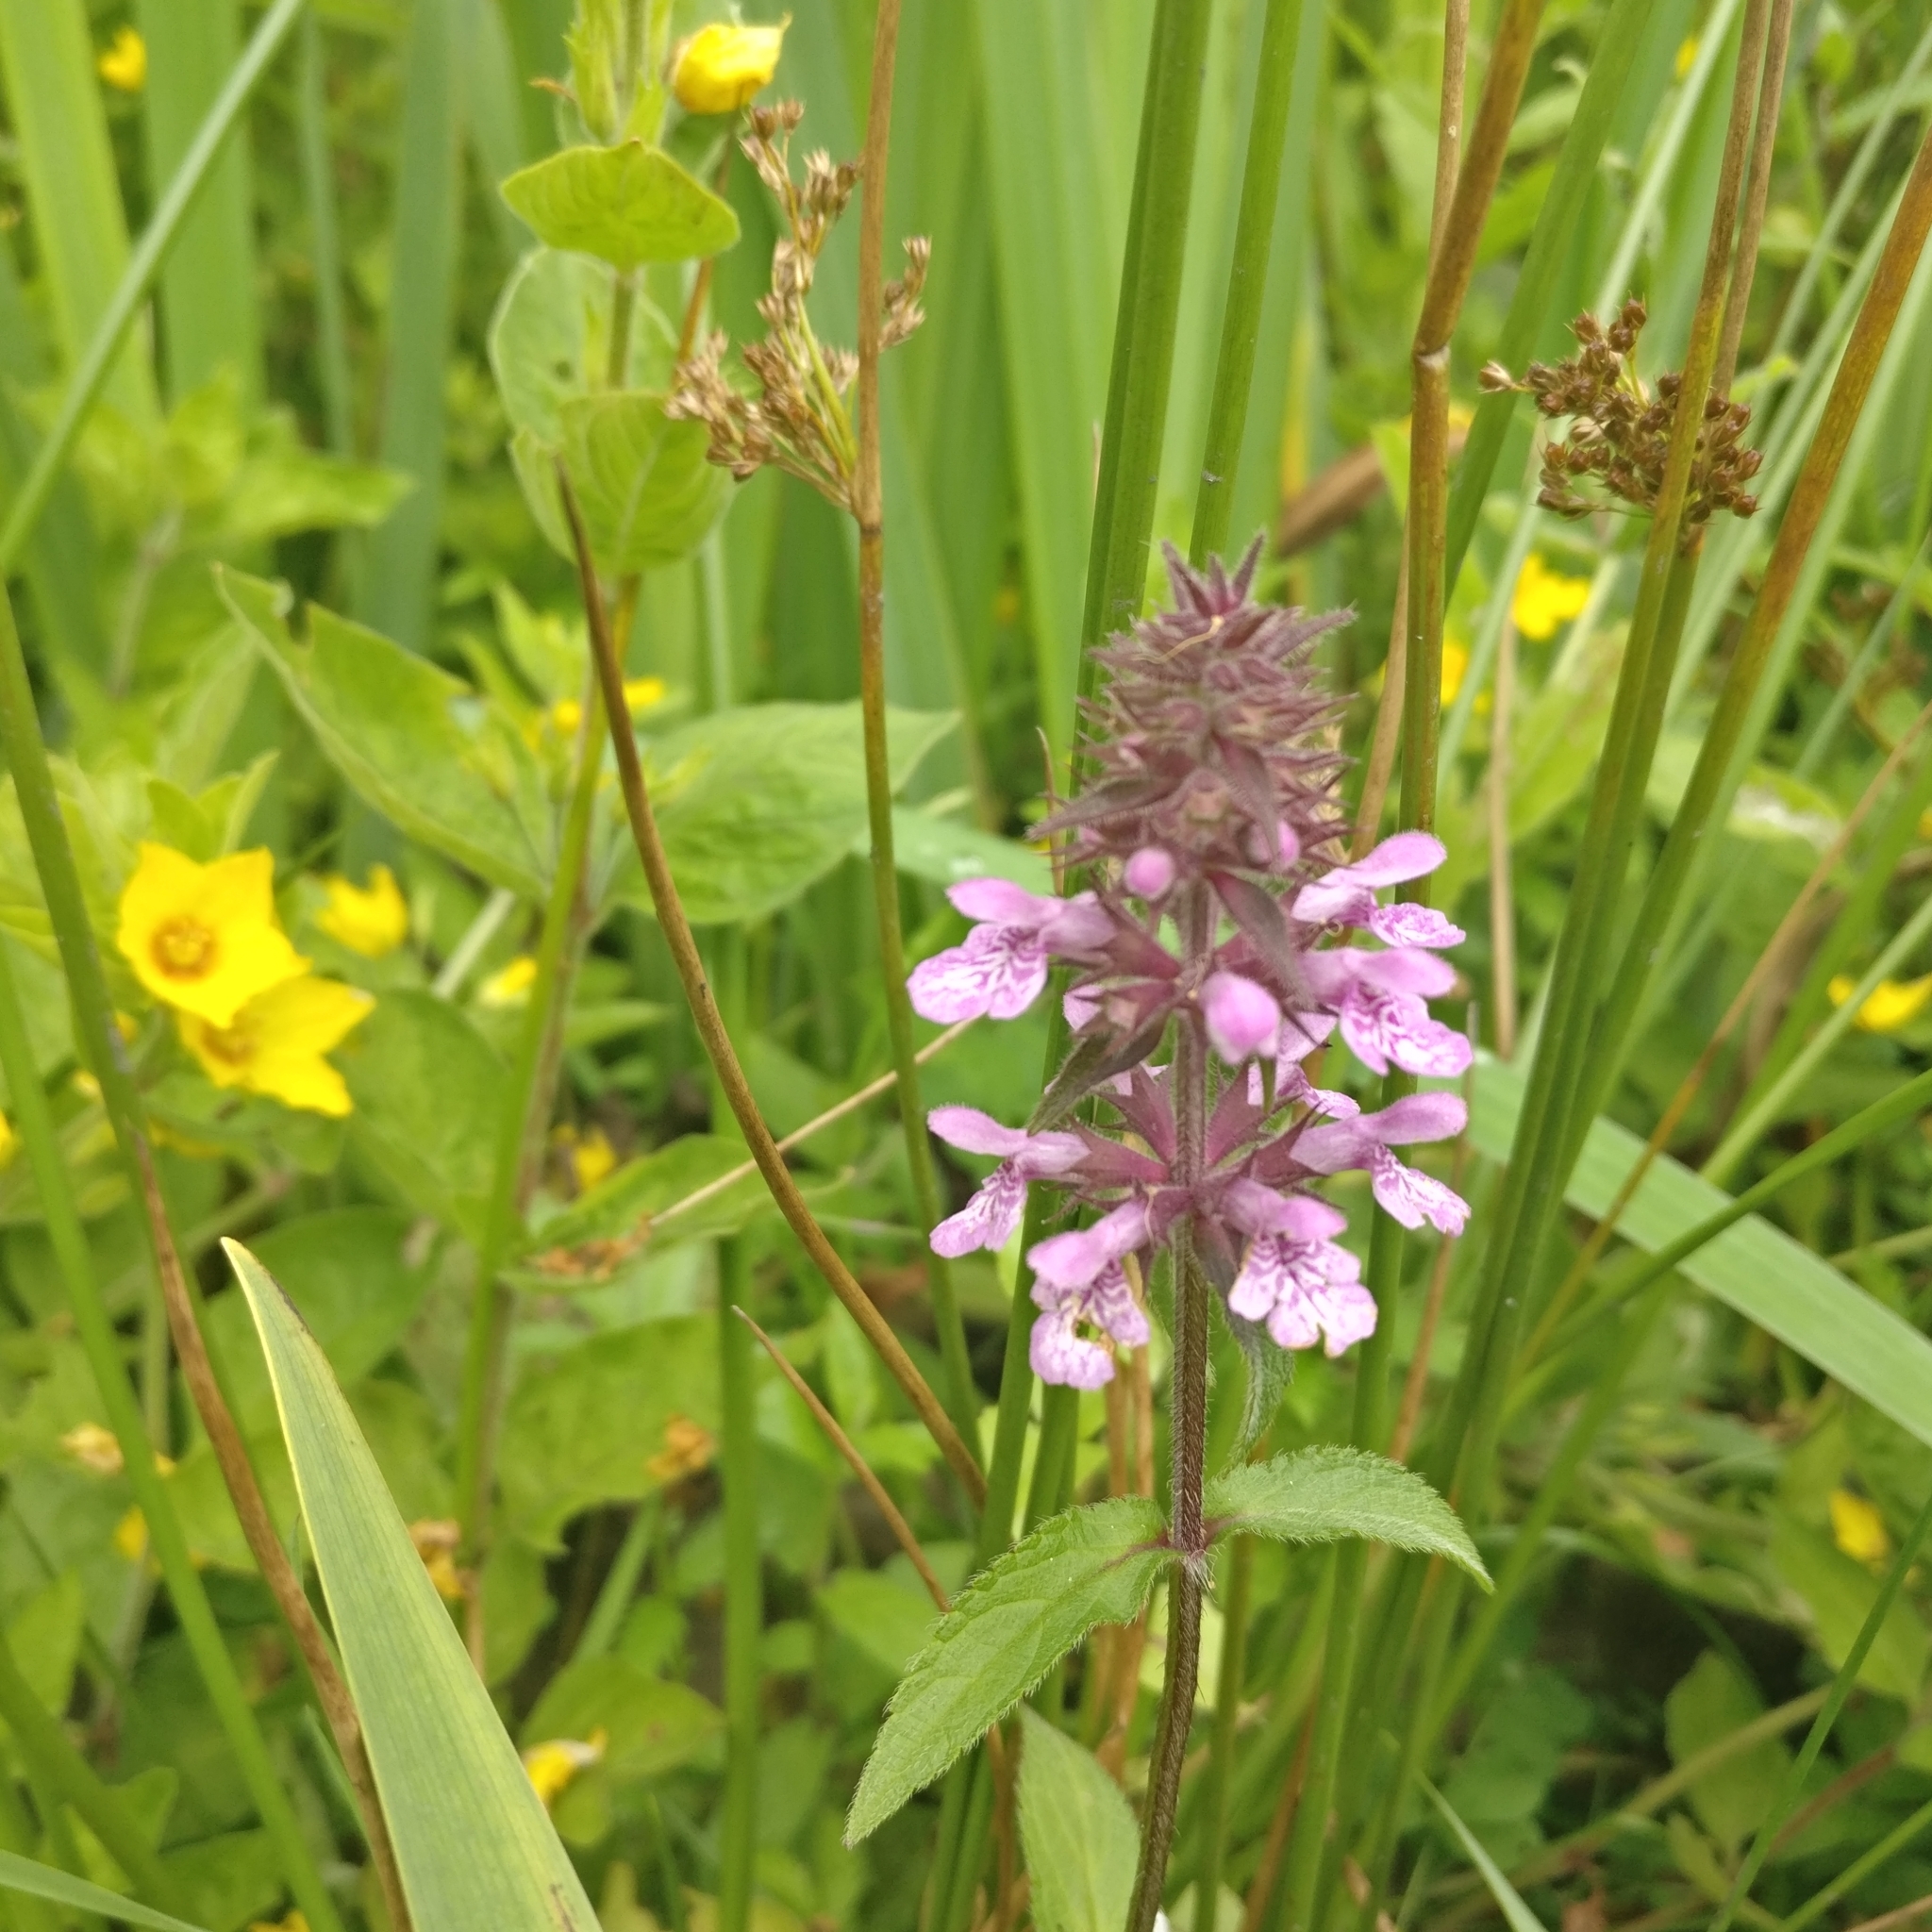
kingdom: Plantae
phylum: Tracheophyta
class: Magnoliopsida
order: Lamiales
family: Lamiaceae
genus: Stachys
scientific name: Stachys palustris
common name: Marsh woundwort
